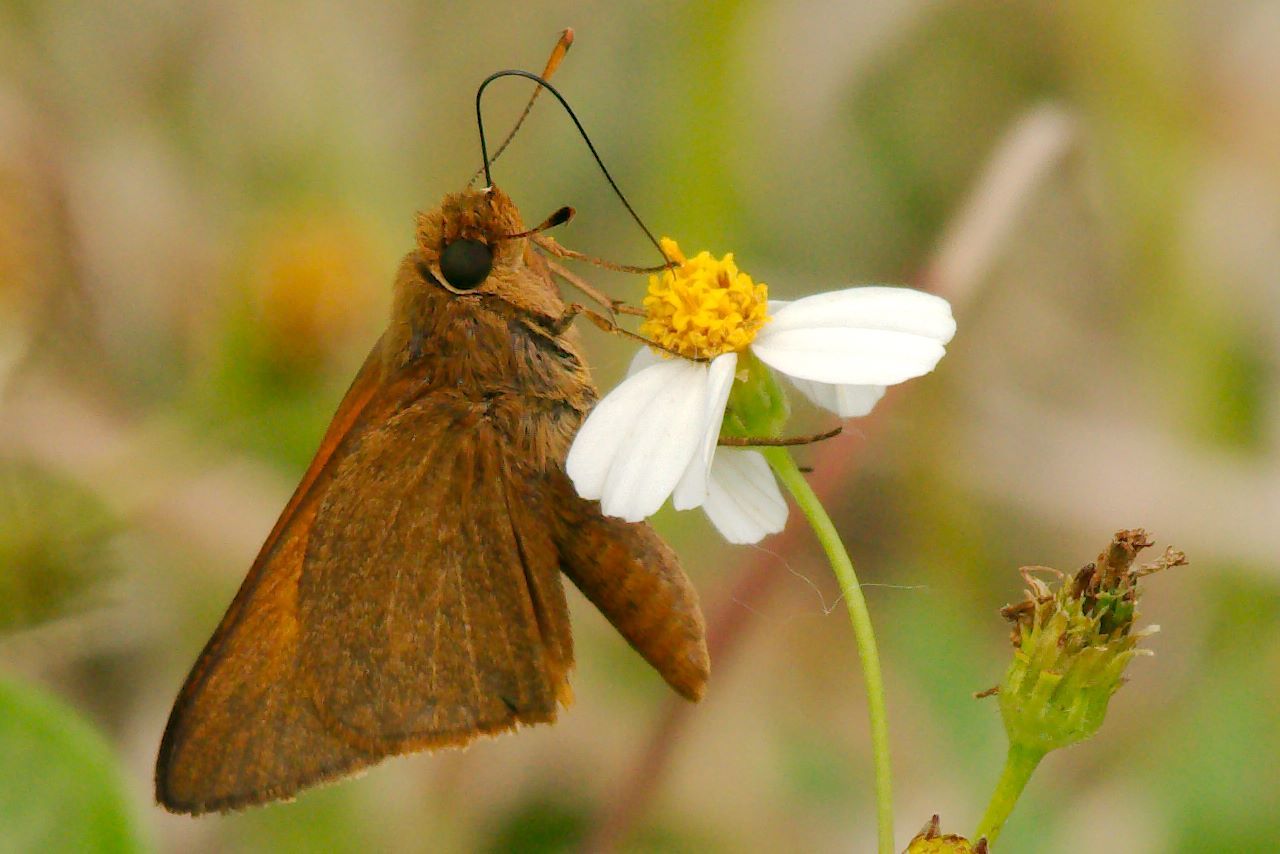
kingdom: Animalia
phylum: Arthropoda
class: Insecta
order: Lepidoptera
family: Hesperiidae
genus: Euphyes
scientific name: Euphyes pilatka
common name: Palatka skipper
